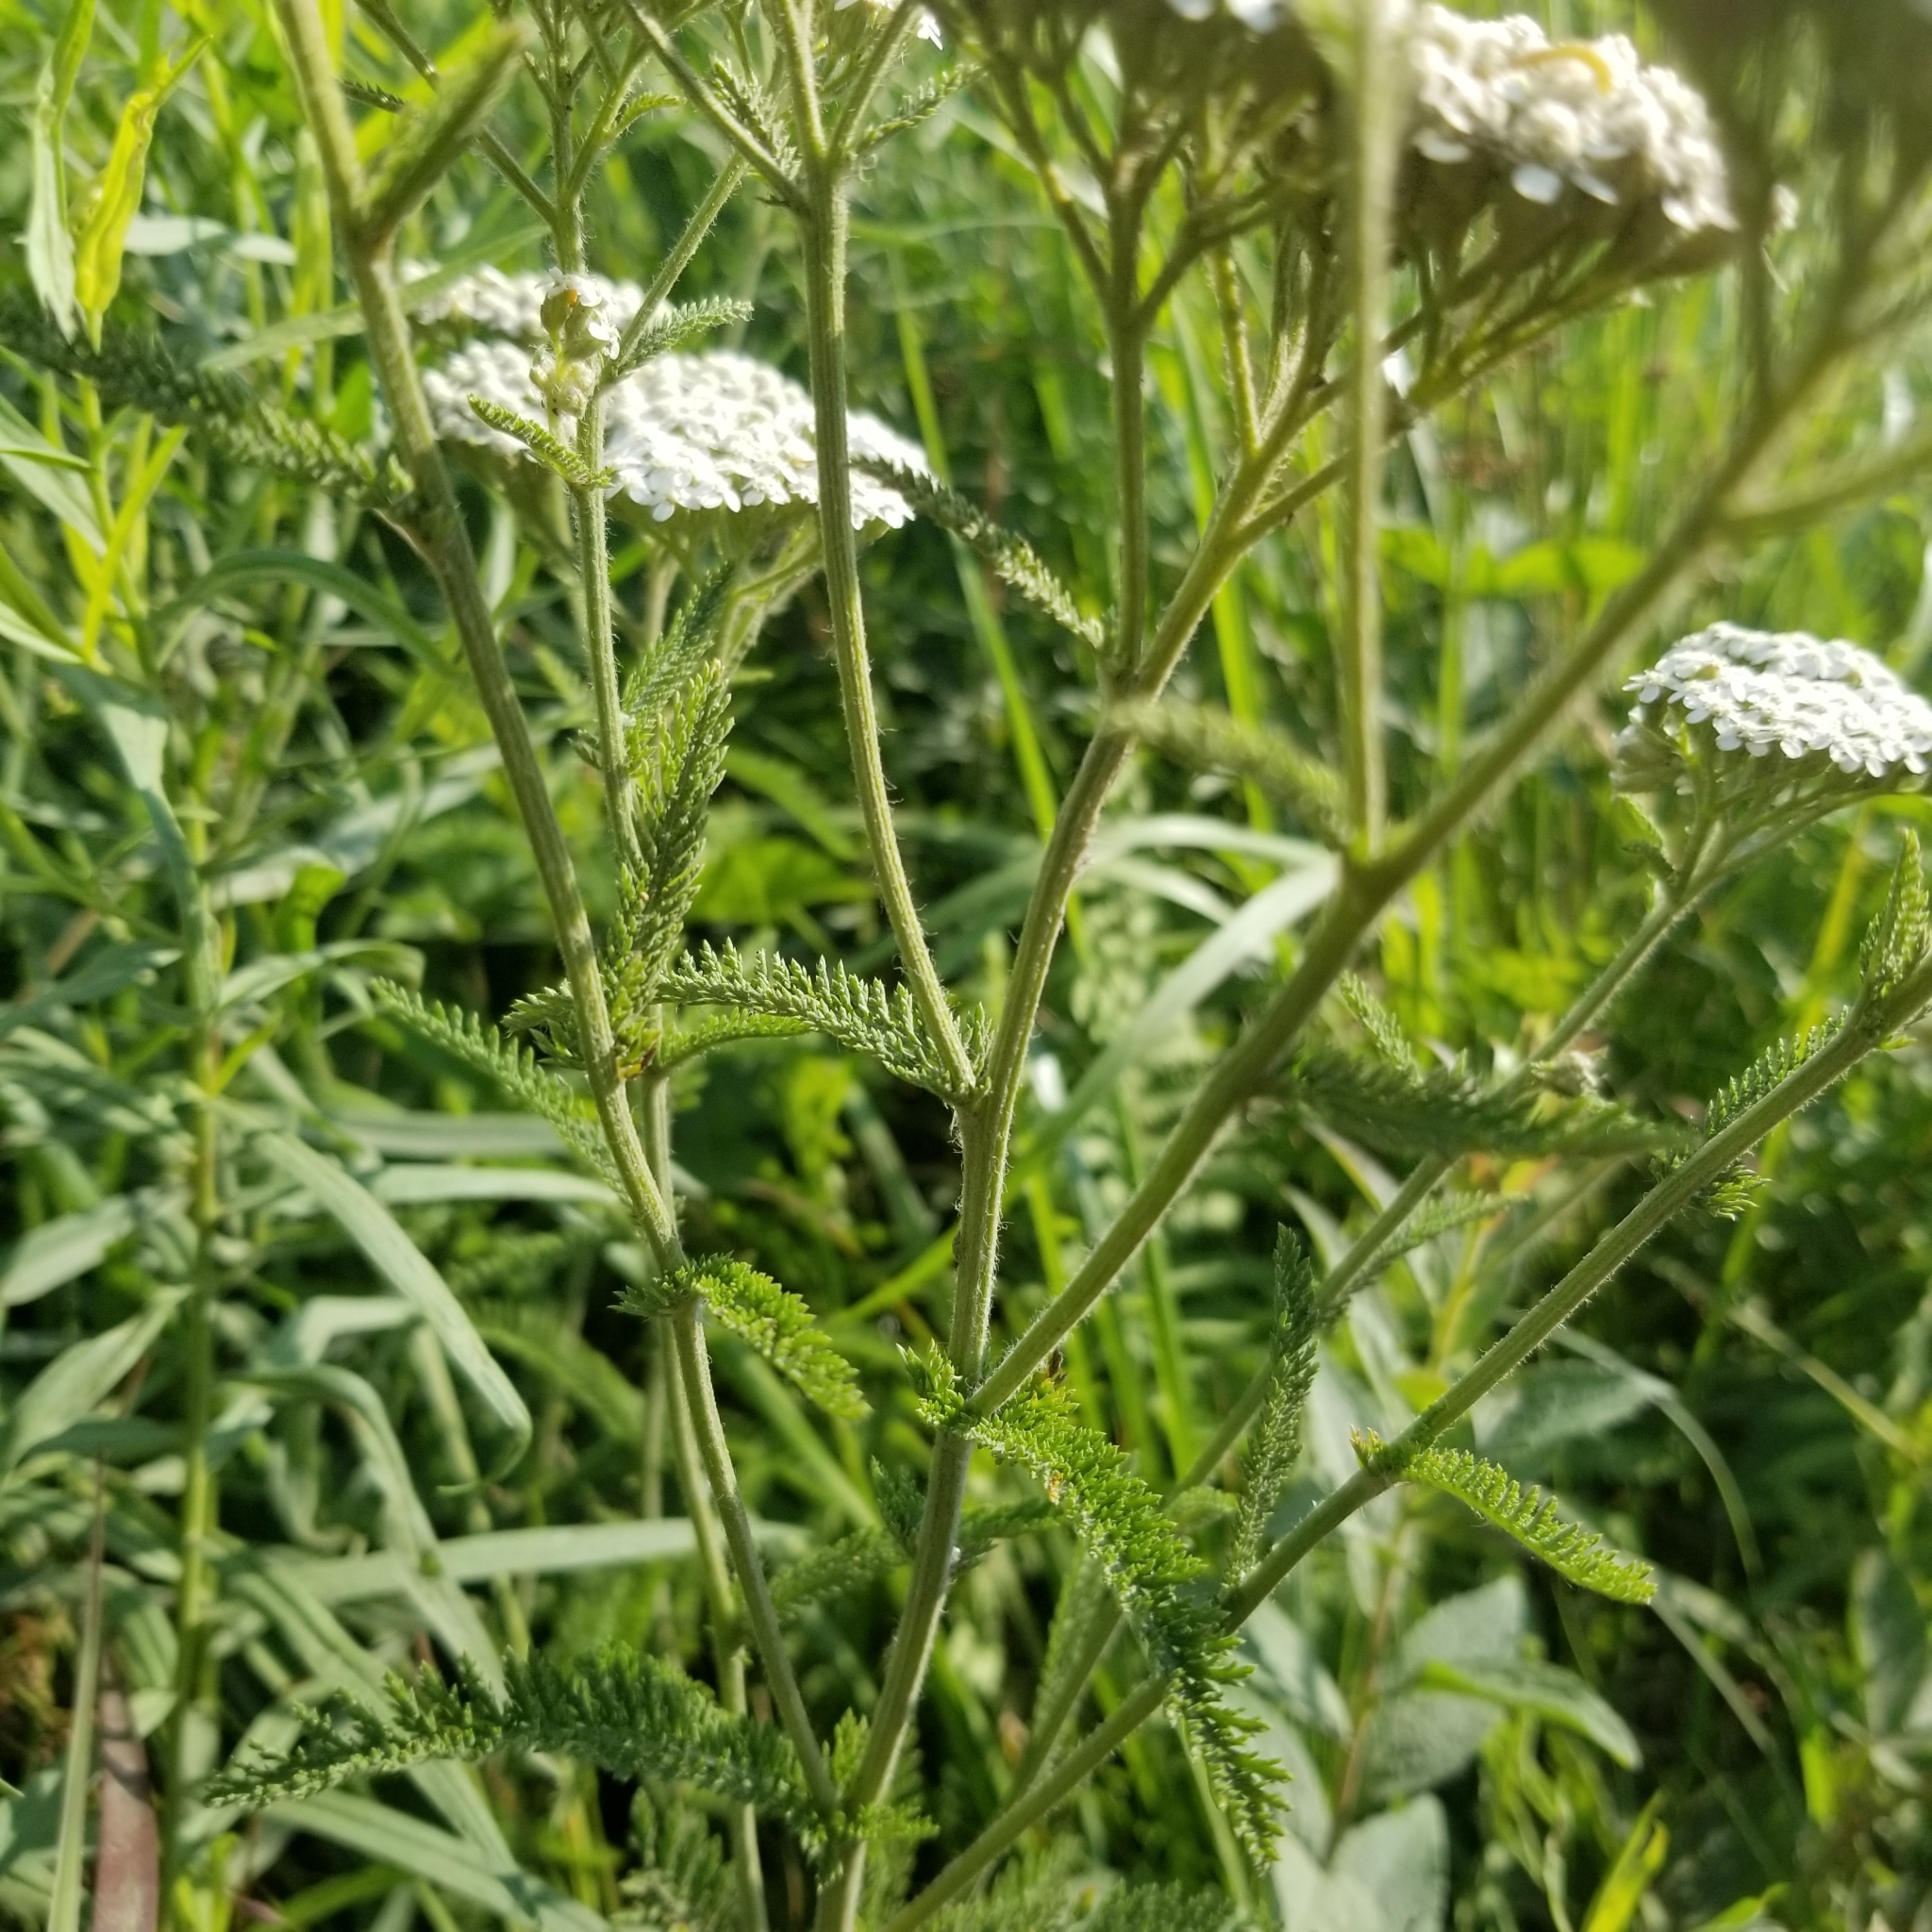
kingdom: Plantae
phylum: Tracheophyta
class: Magnoliopsida
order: Asterales
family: Asteraceae
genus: Achillea
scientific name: Achillea millefolium
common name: Yarrow
